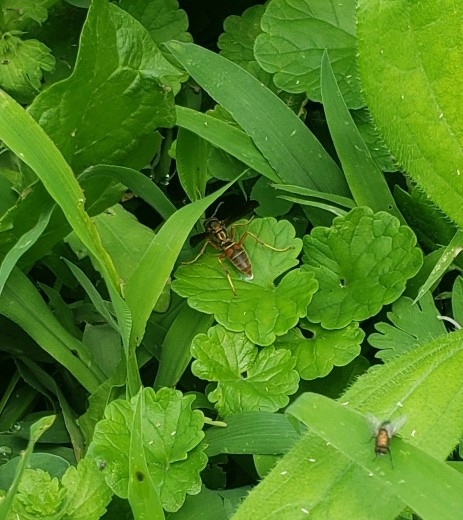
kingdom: Animalia
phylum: Arthropoda
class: Insecta
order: Hymenoptera
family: Eumenidae
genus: Polistes
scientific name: Polistes fuscatus
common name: Dark paper wasp
